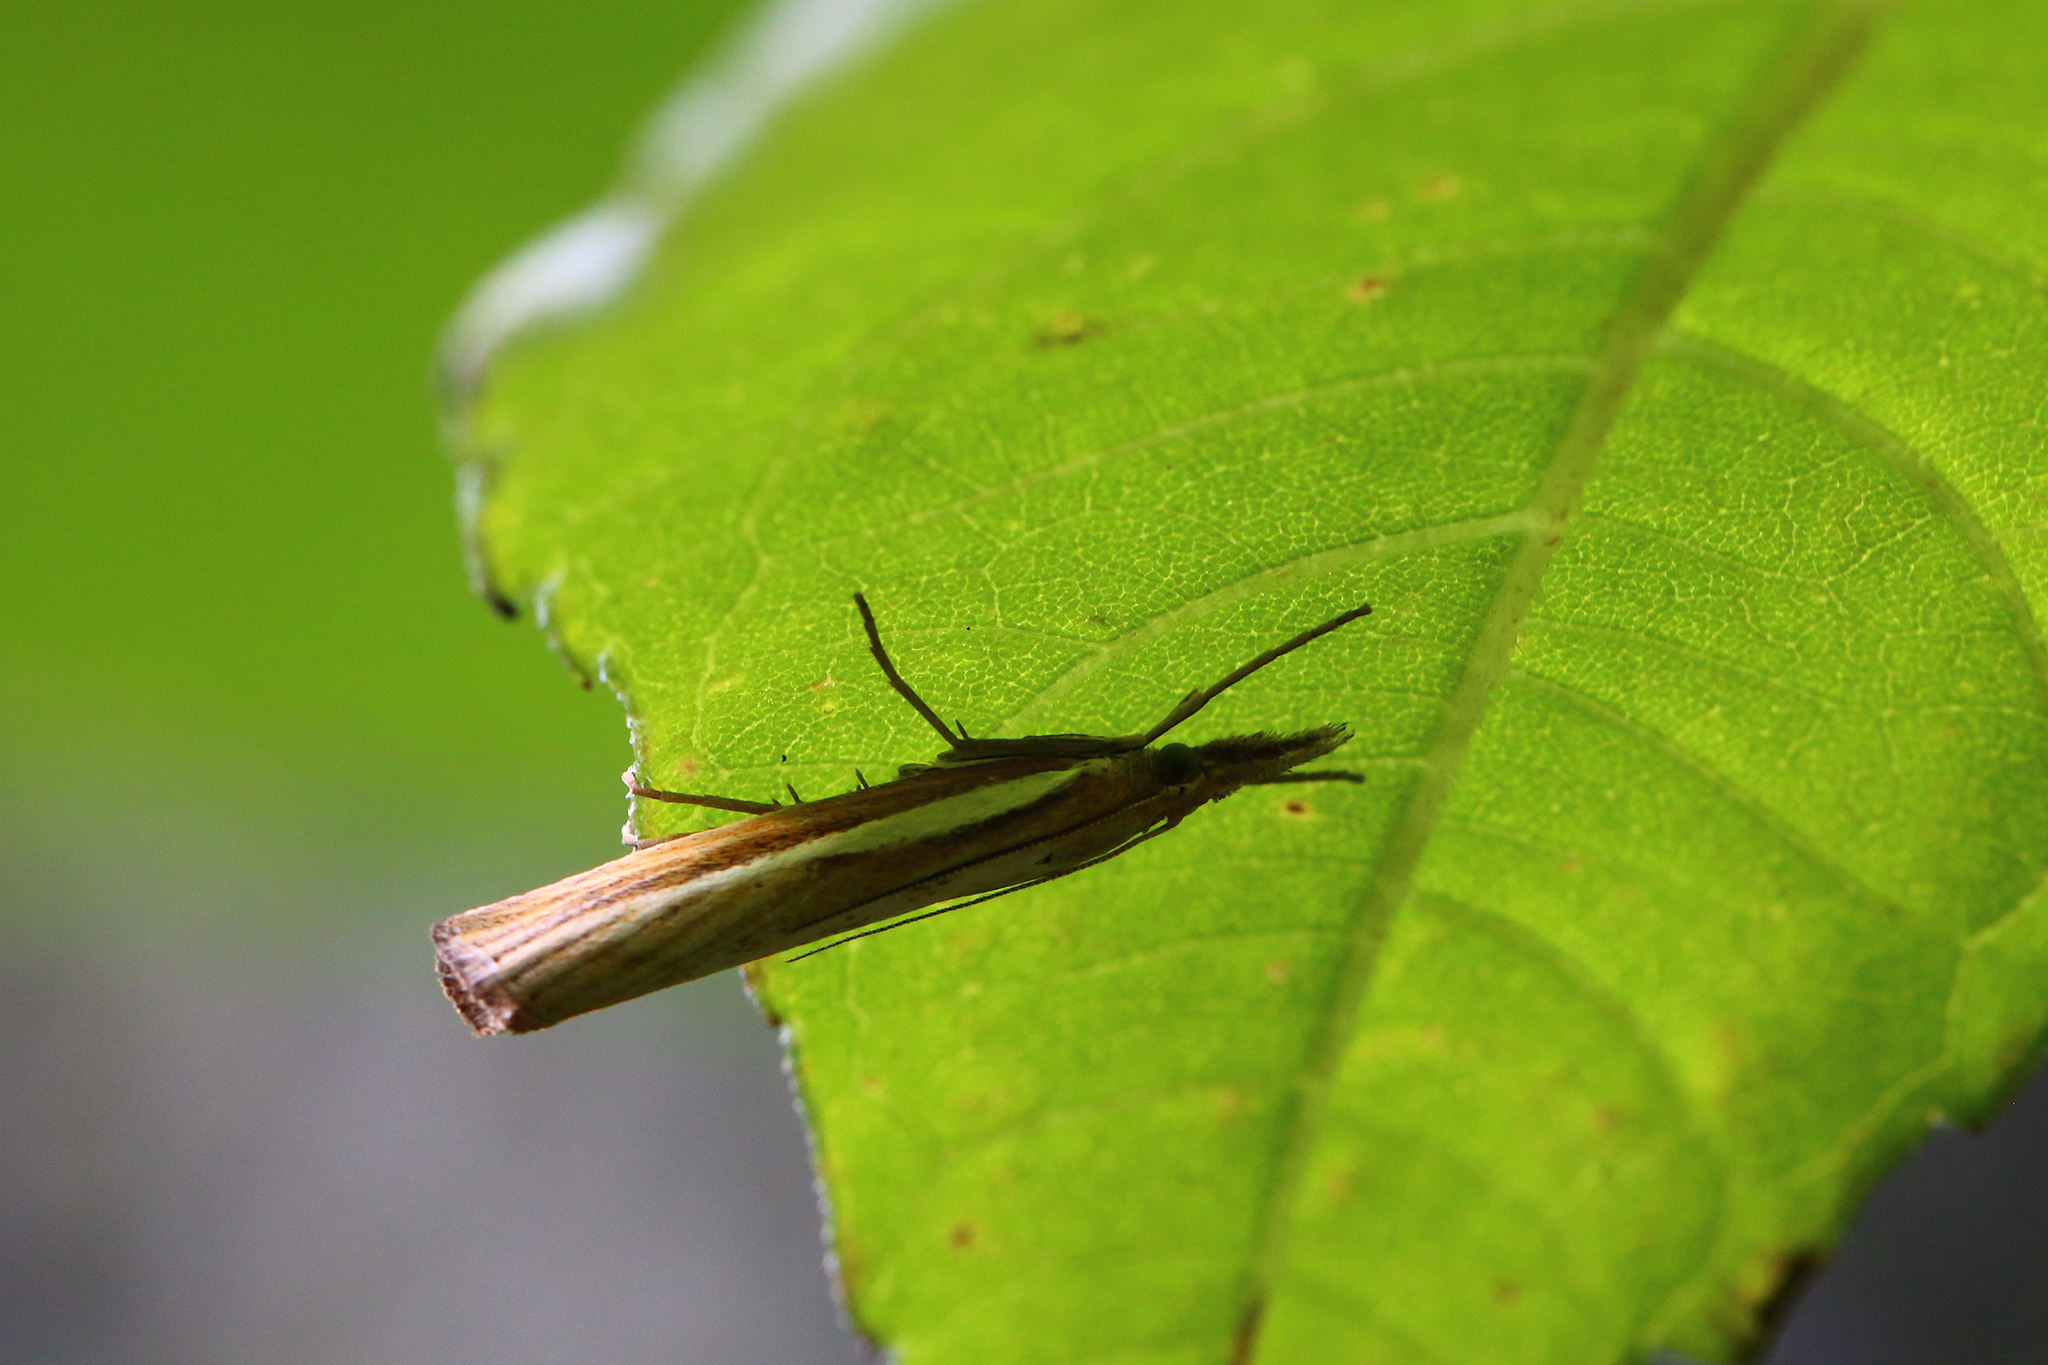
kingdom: Animalia
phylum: Arthropoda
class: Insecta
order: Lepidoptera
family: Crambidae
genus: Agriphila
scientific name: Agriphila tristellus
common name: Common grass-veneer
